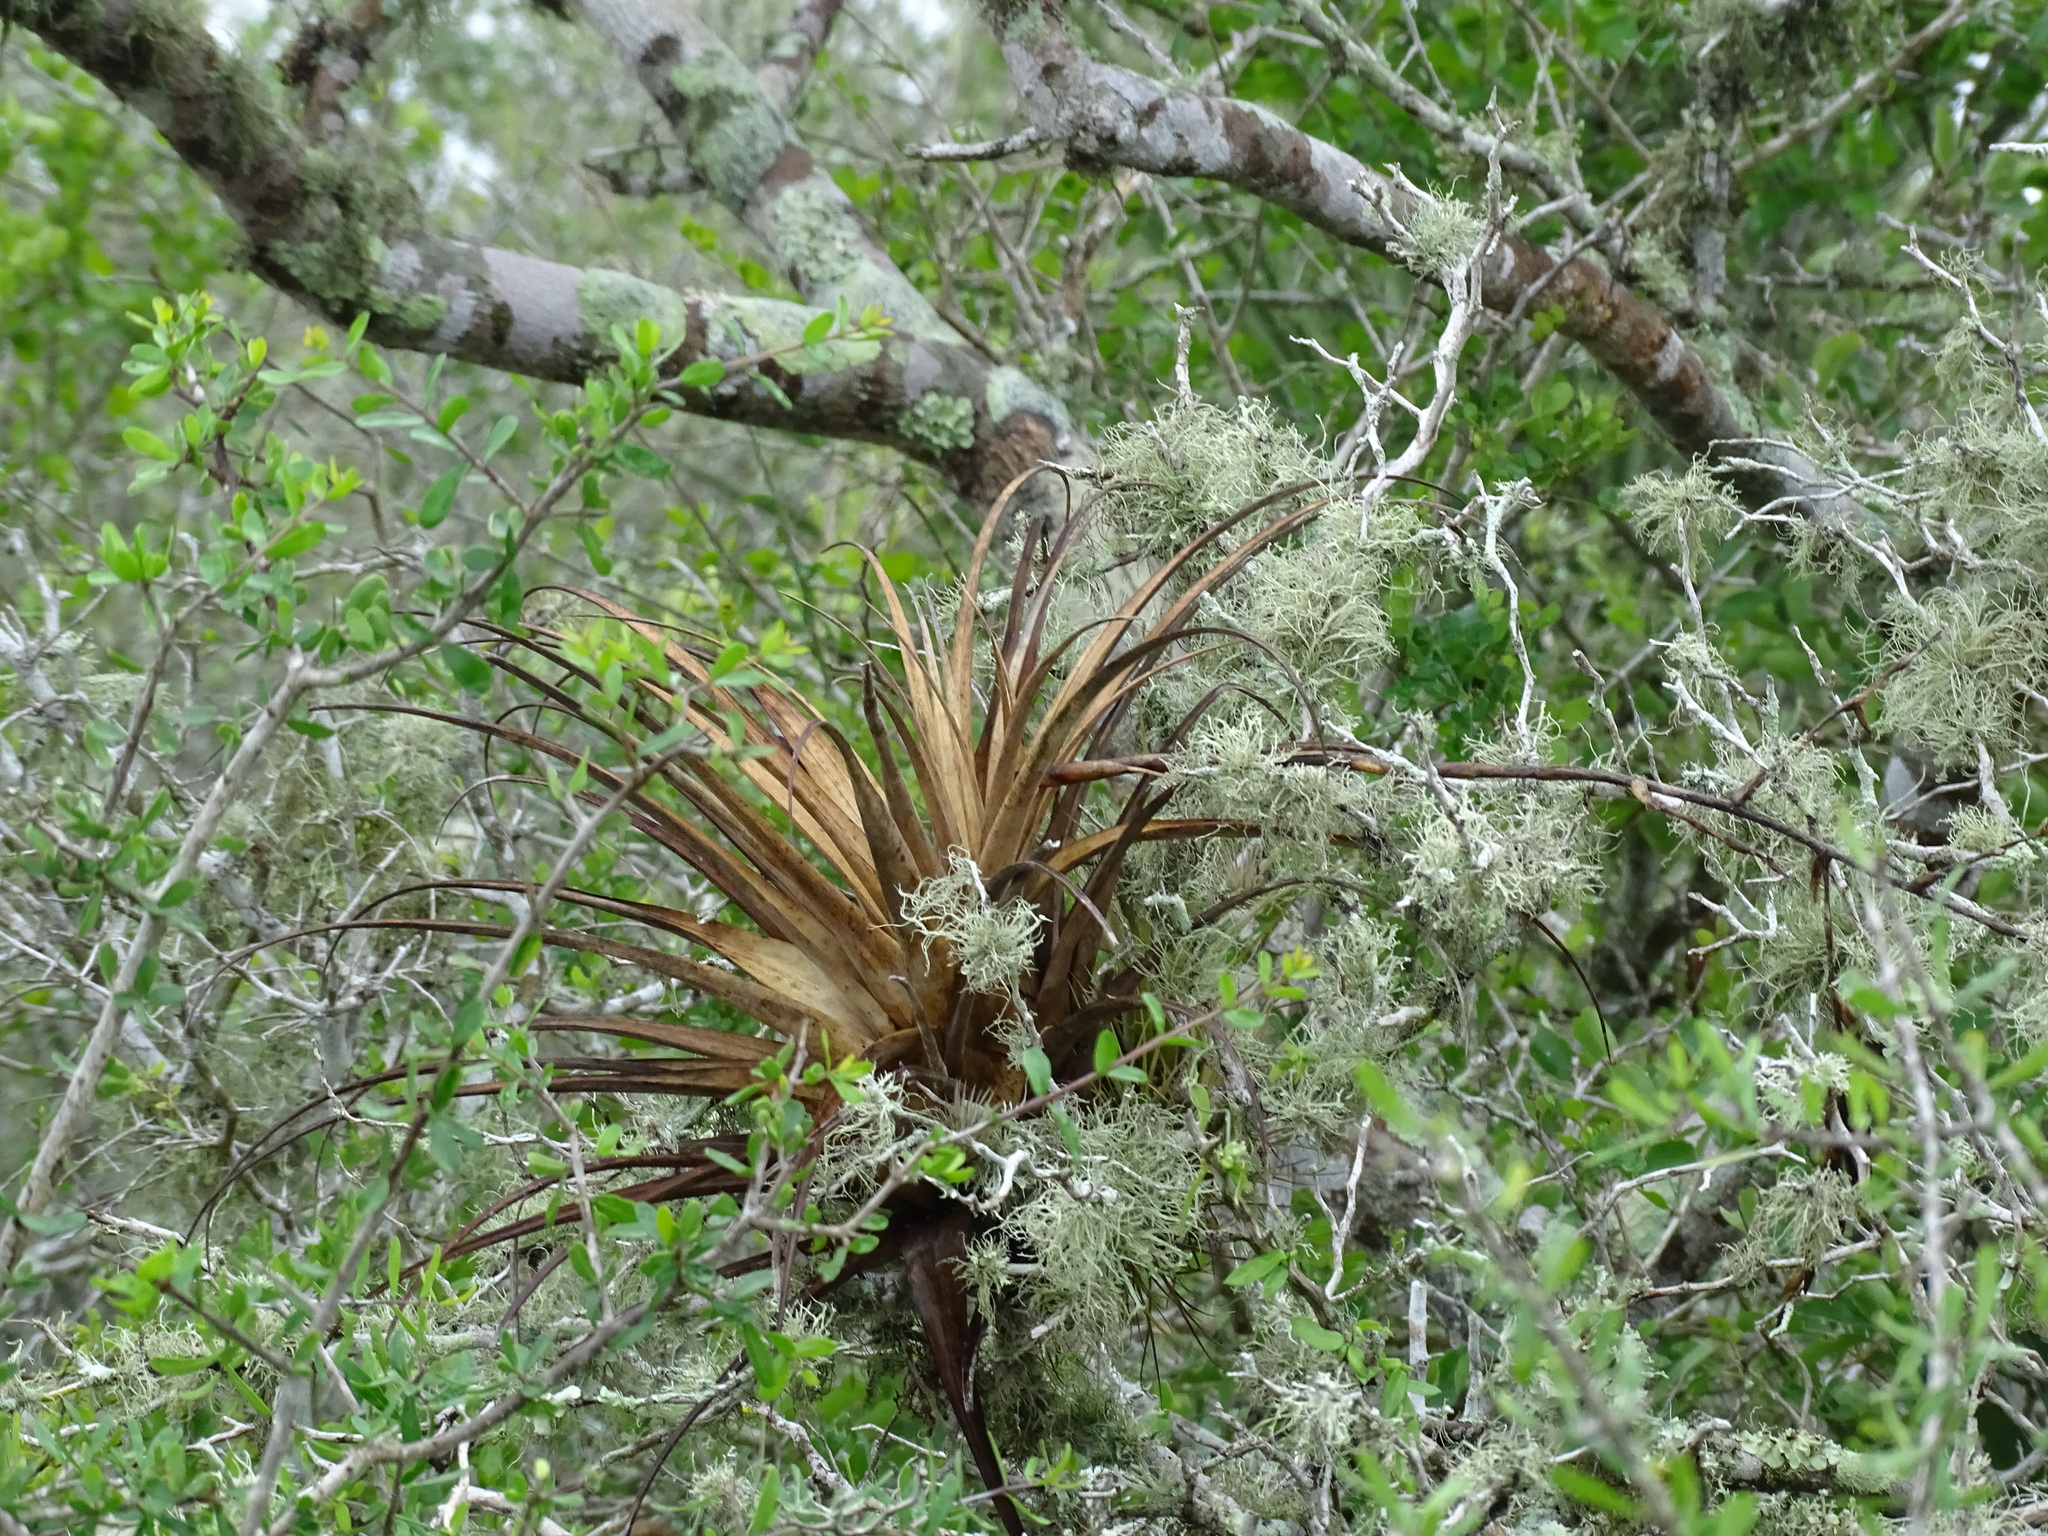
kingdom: Plantae
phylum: Tracheophyta
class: Liliopsida
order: Poales
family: Bromeliaceae
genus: Tillandsia
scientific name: Tillandsia utriculata
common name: Wild pine
